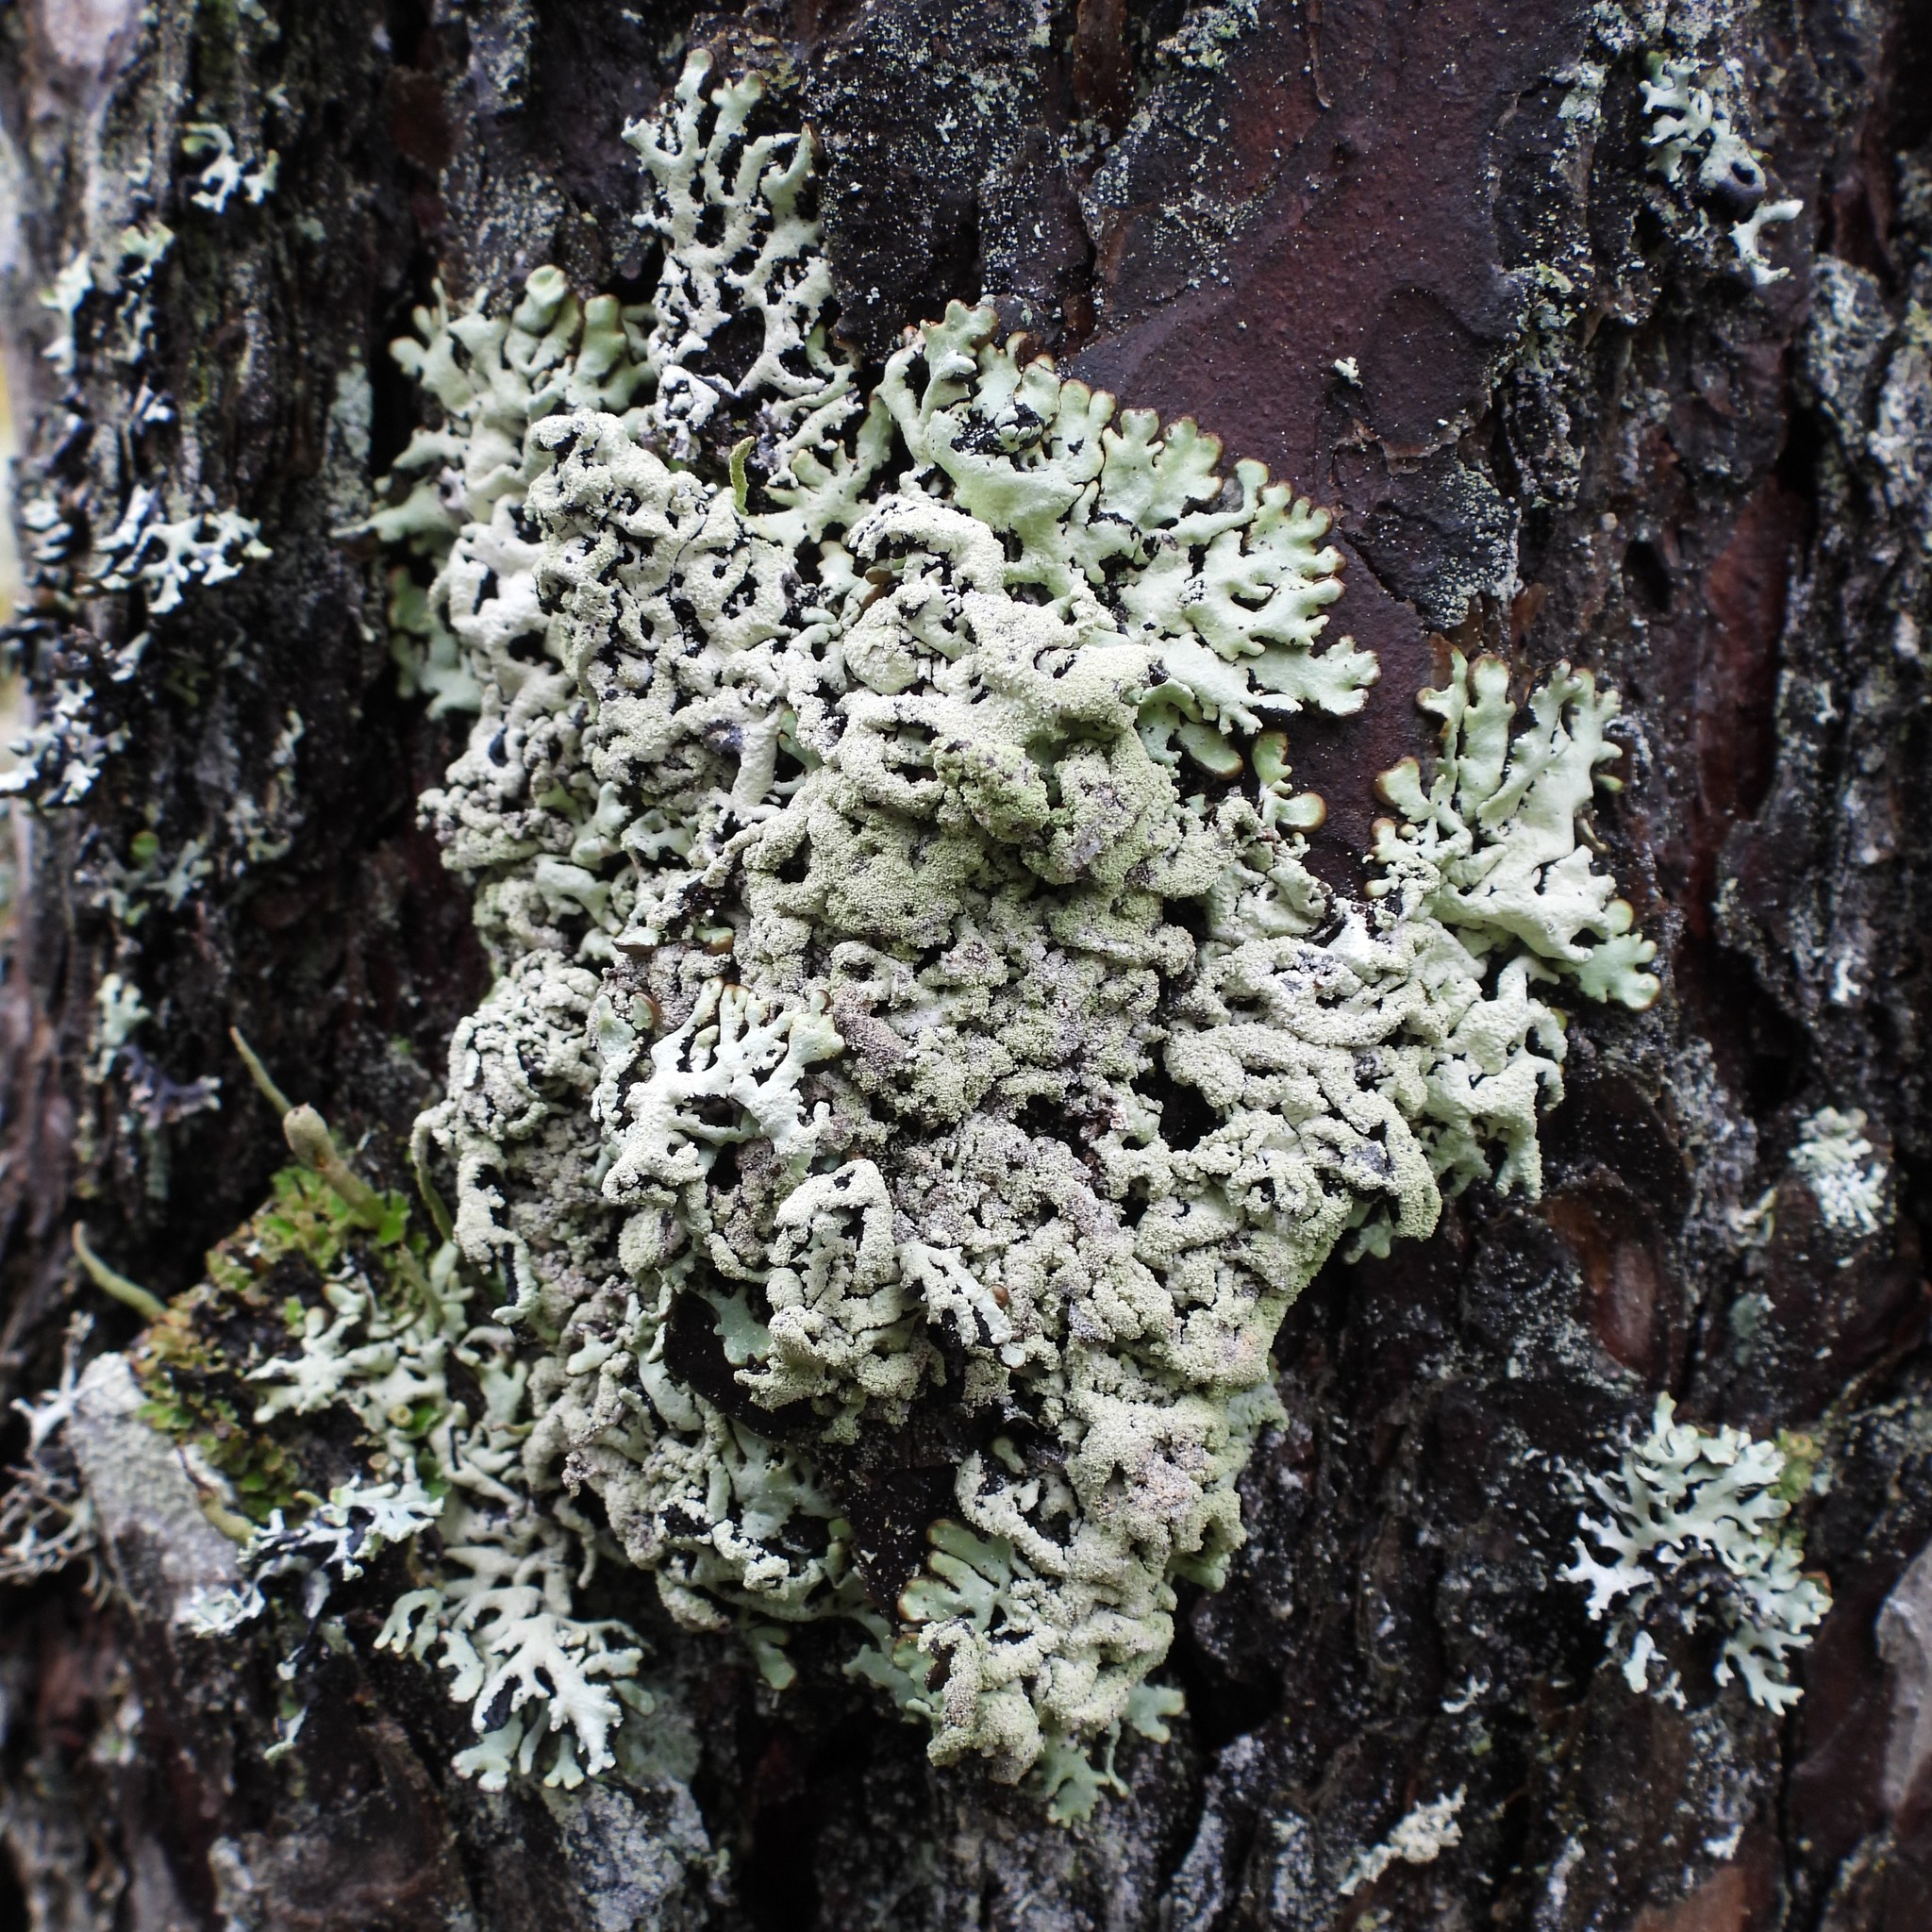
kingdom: Fungi
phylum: Ascomycota
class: Lecanoromycetes
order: Lecanorales
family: Parmeliaceae
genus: Hypogymnia
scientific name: Hypogymnia farinacea
